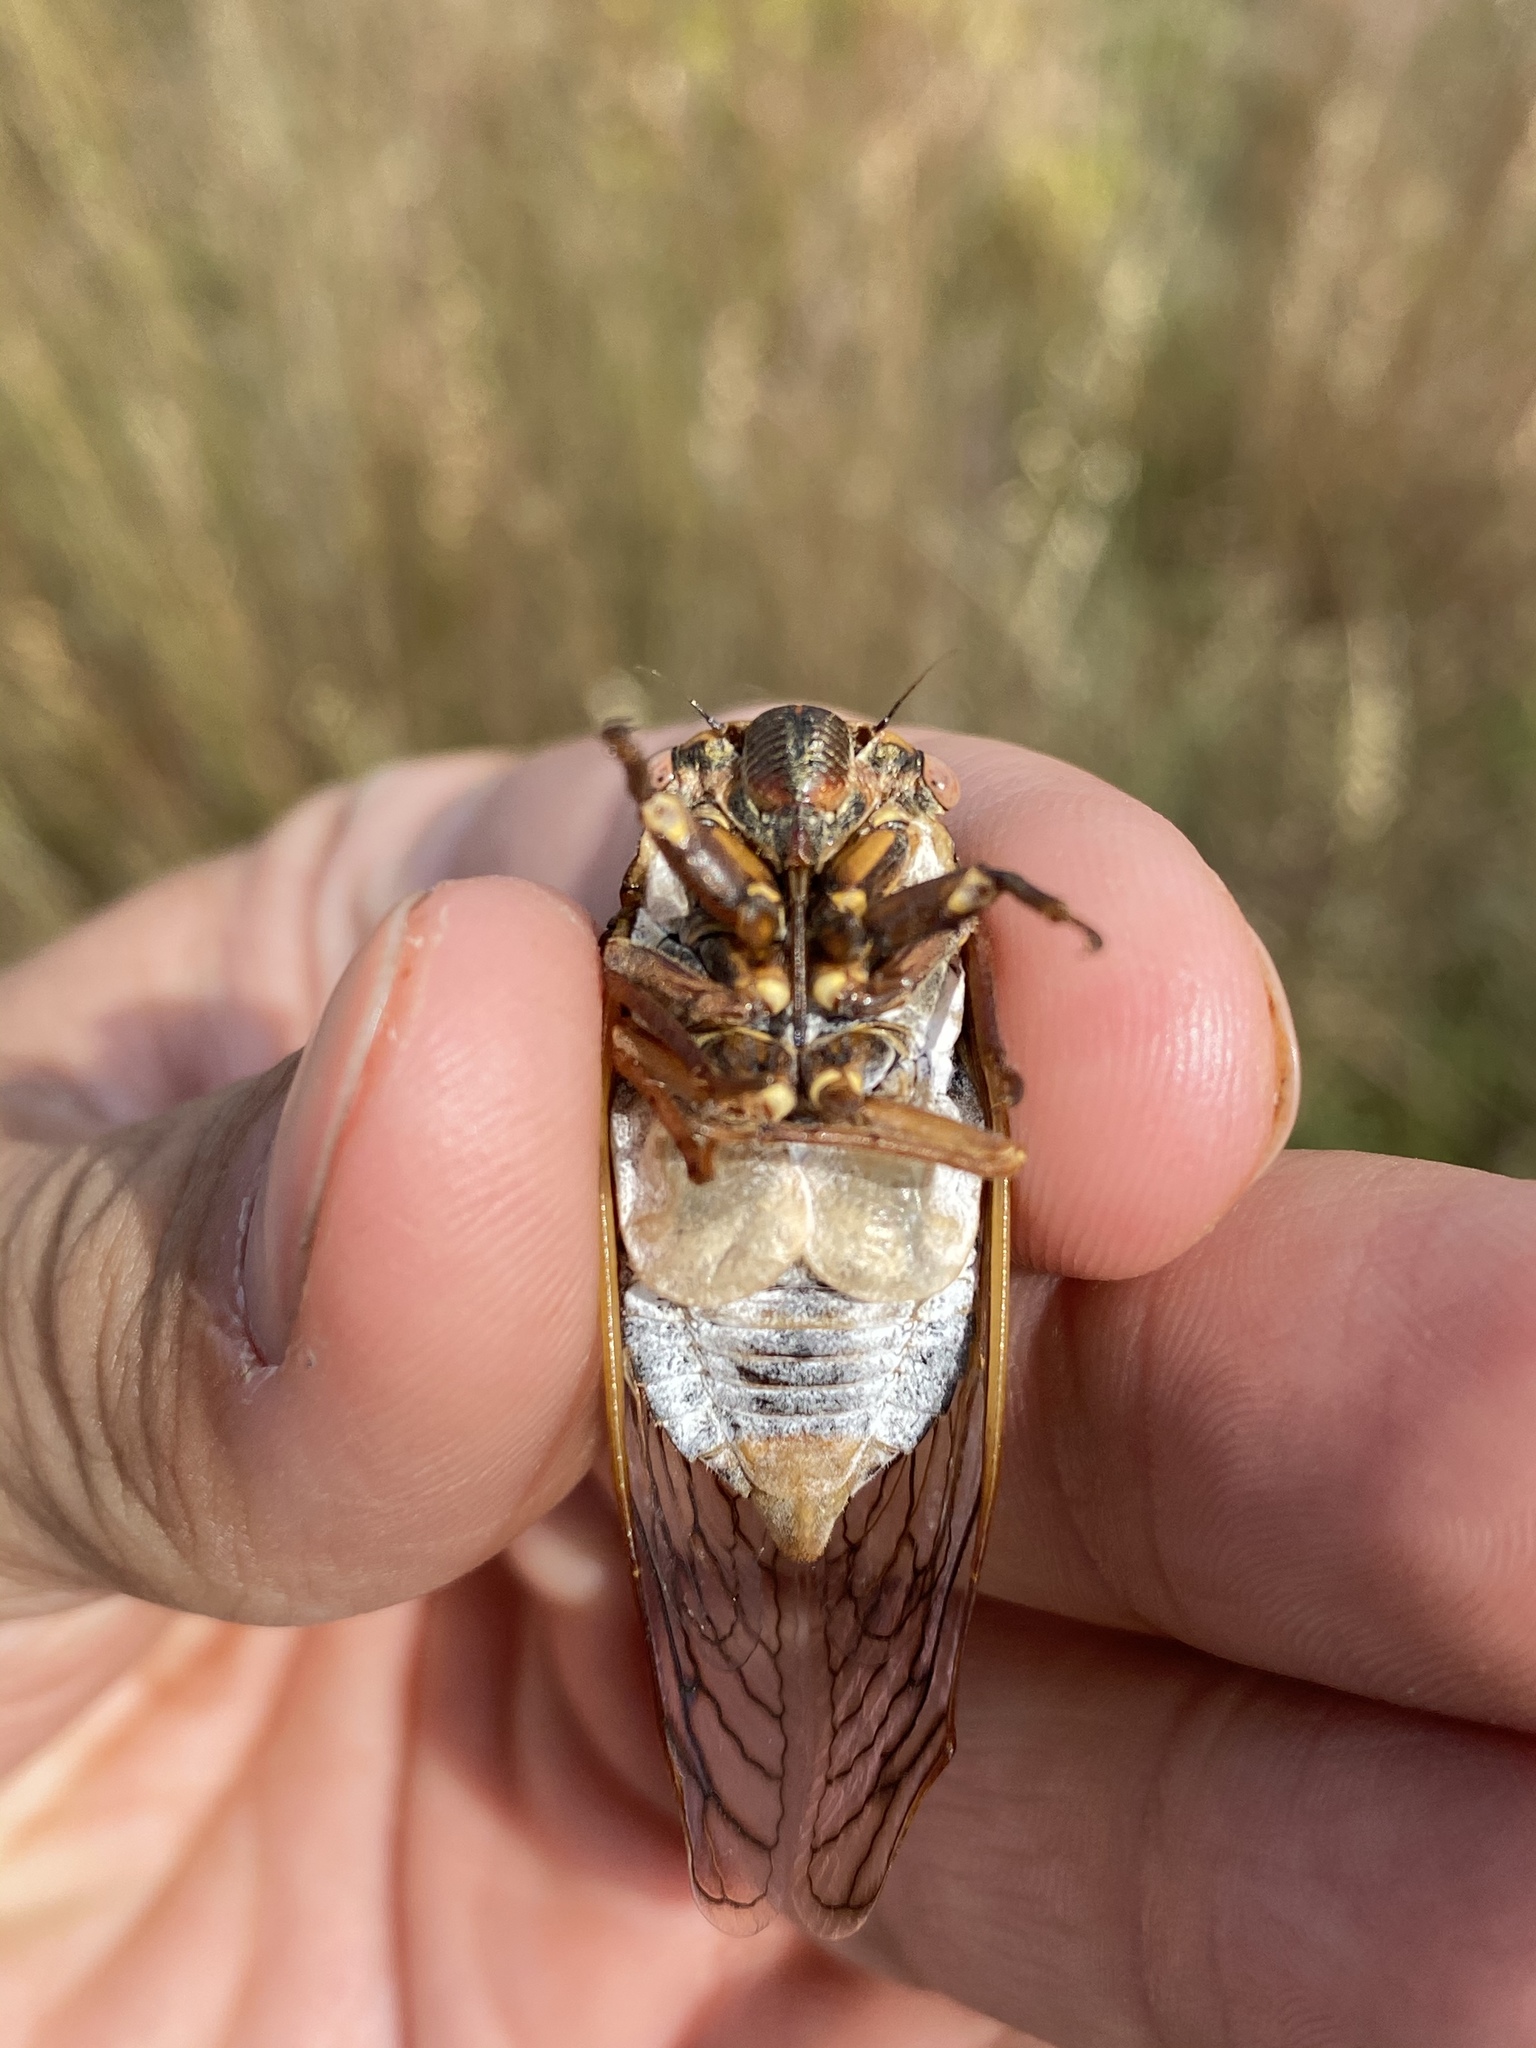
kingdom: Animalia
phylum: Arthropoda
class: Insecta
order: Hemiptera
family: Cicadidae
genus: Megatibicen
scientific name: Megatibicen dorsatus
